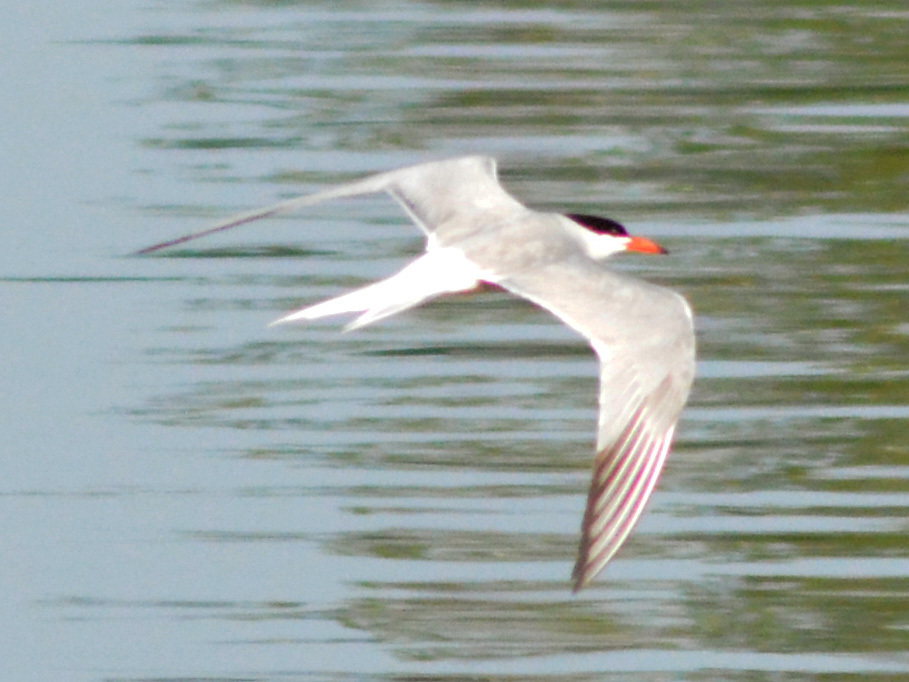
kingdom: Animalia
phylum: Chordata
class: Aves
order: Charadriiformes
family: Laridae
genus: Sterna
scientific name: Sterna hirundo
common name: Common tern
